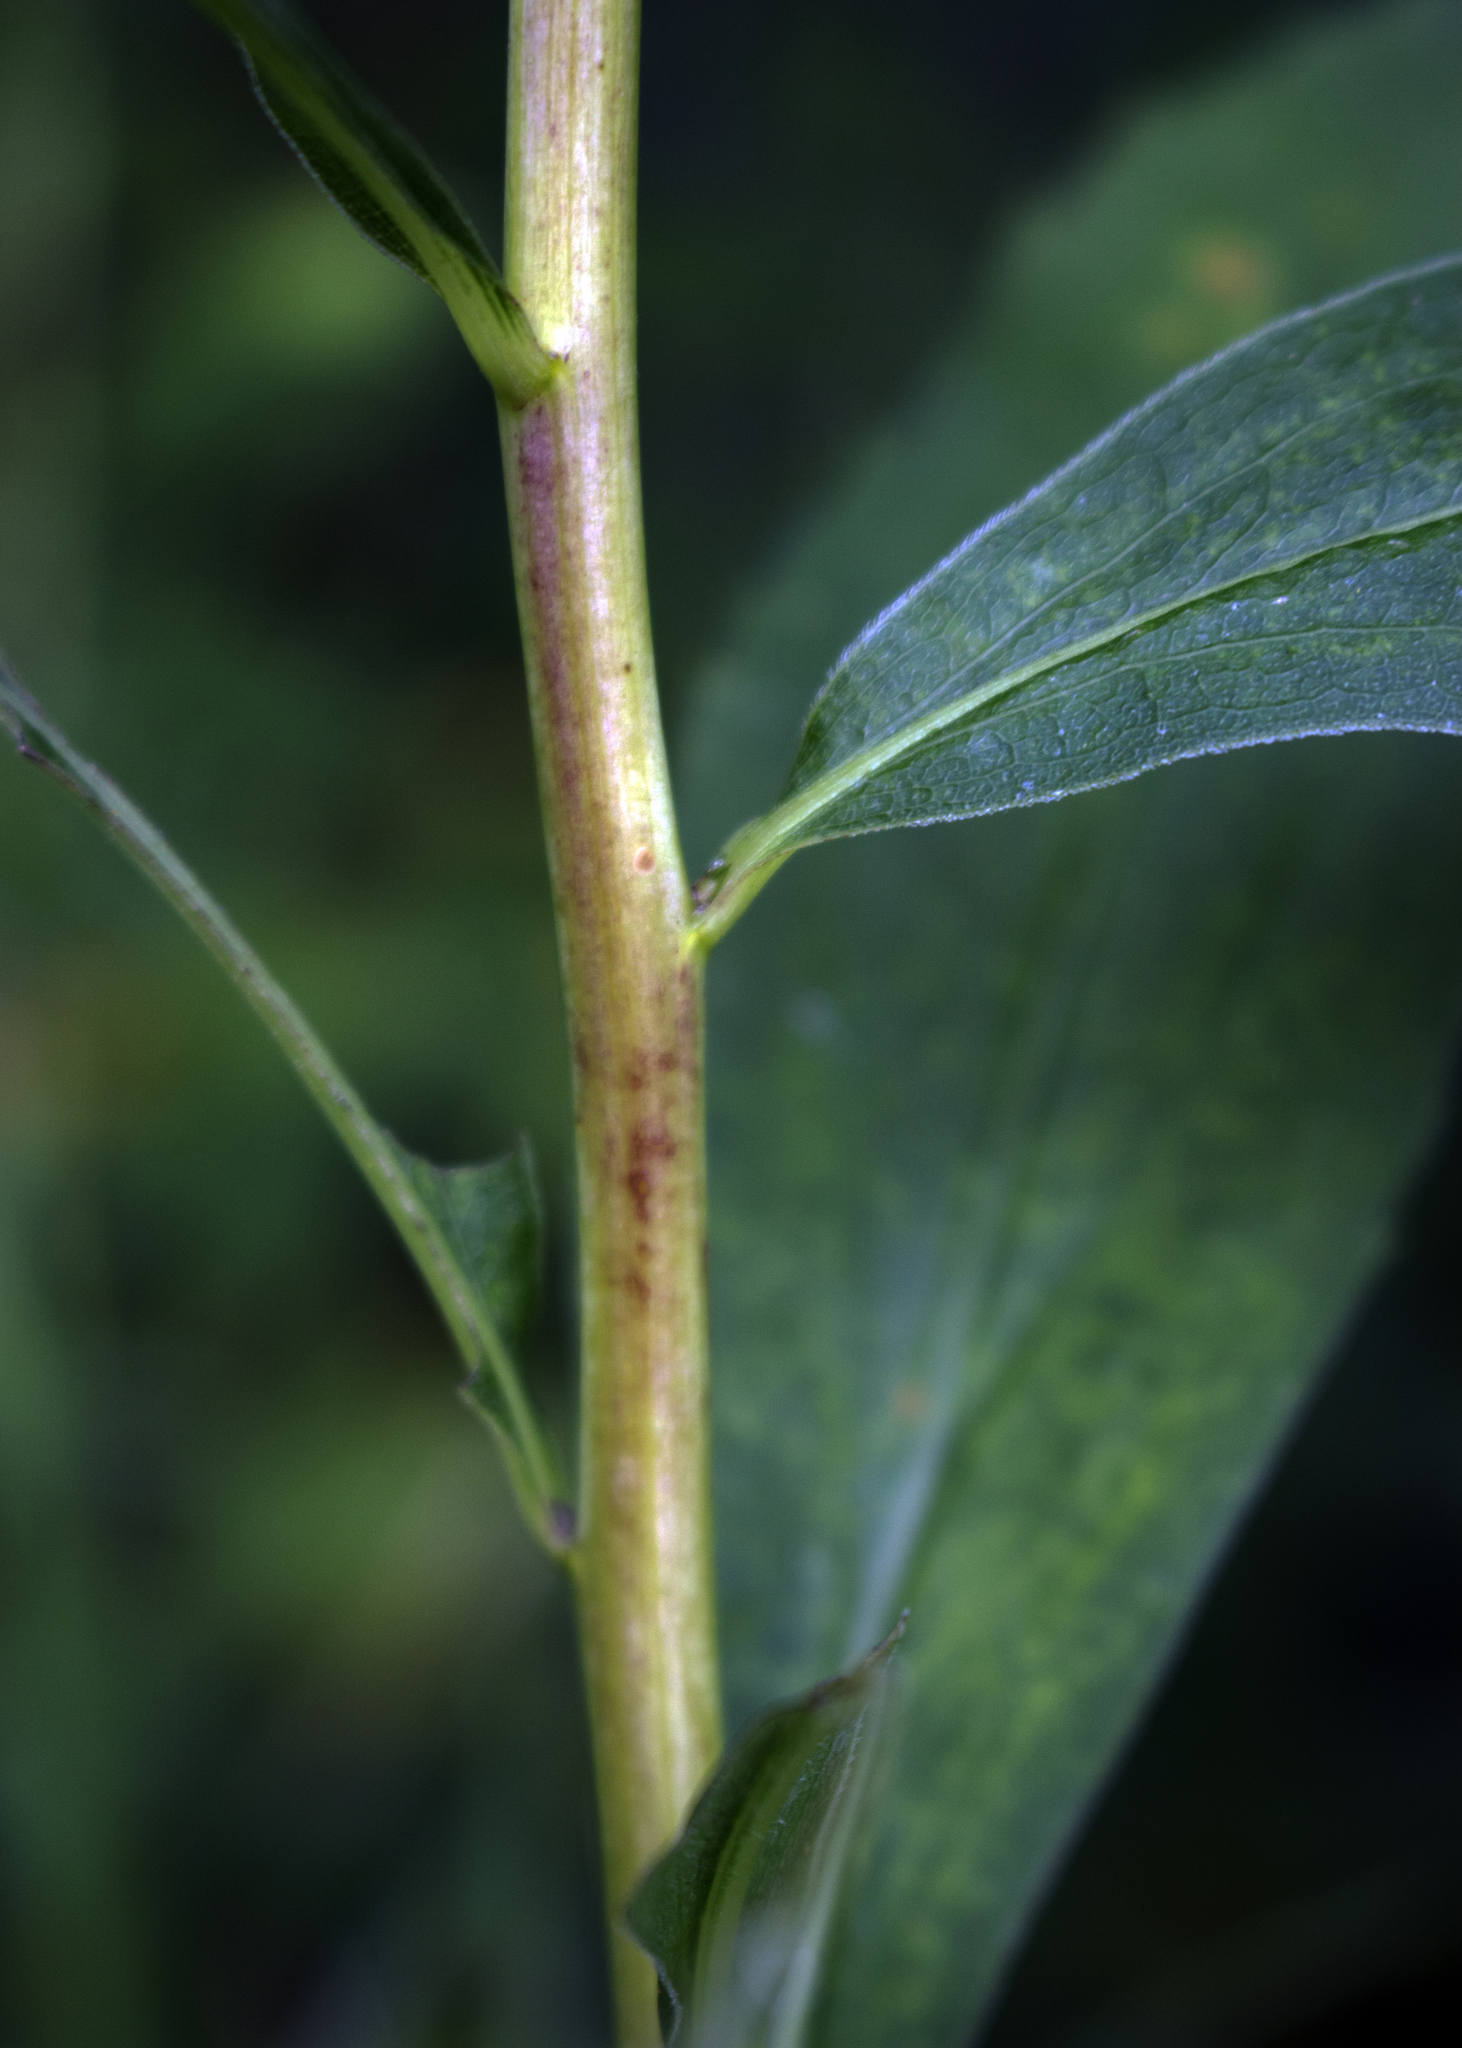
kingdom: Plantae
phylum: Tracheophyta
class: Magnoliopsida
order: Asterales
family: Asteraceae
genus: Solidago
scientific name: Solidago gigantea
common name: Giant goldenrod
